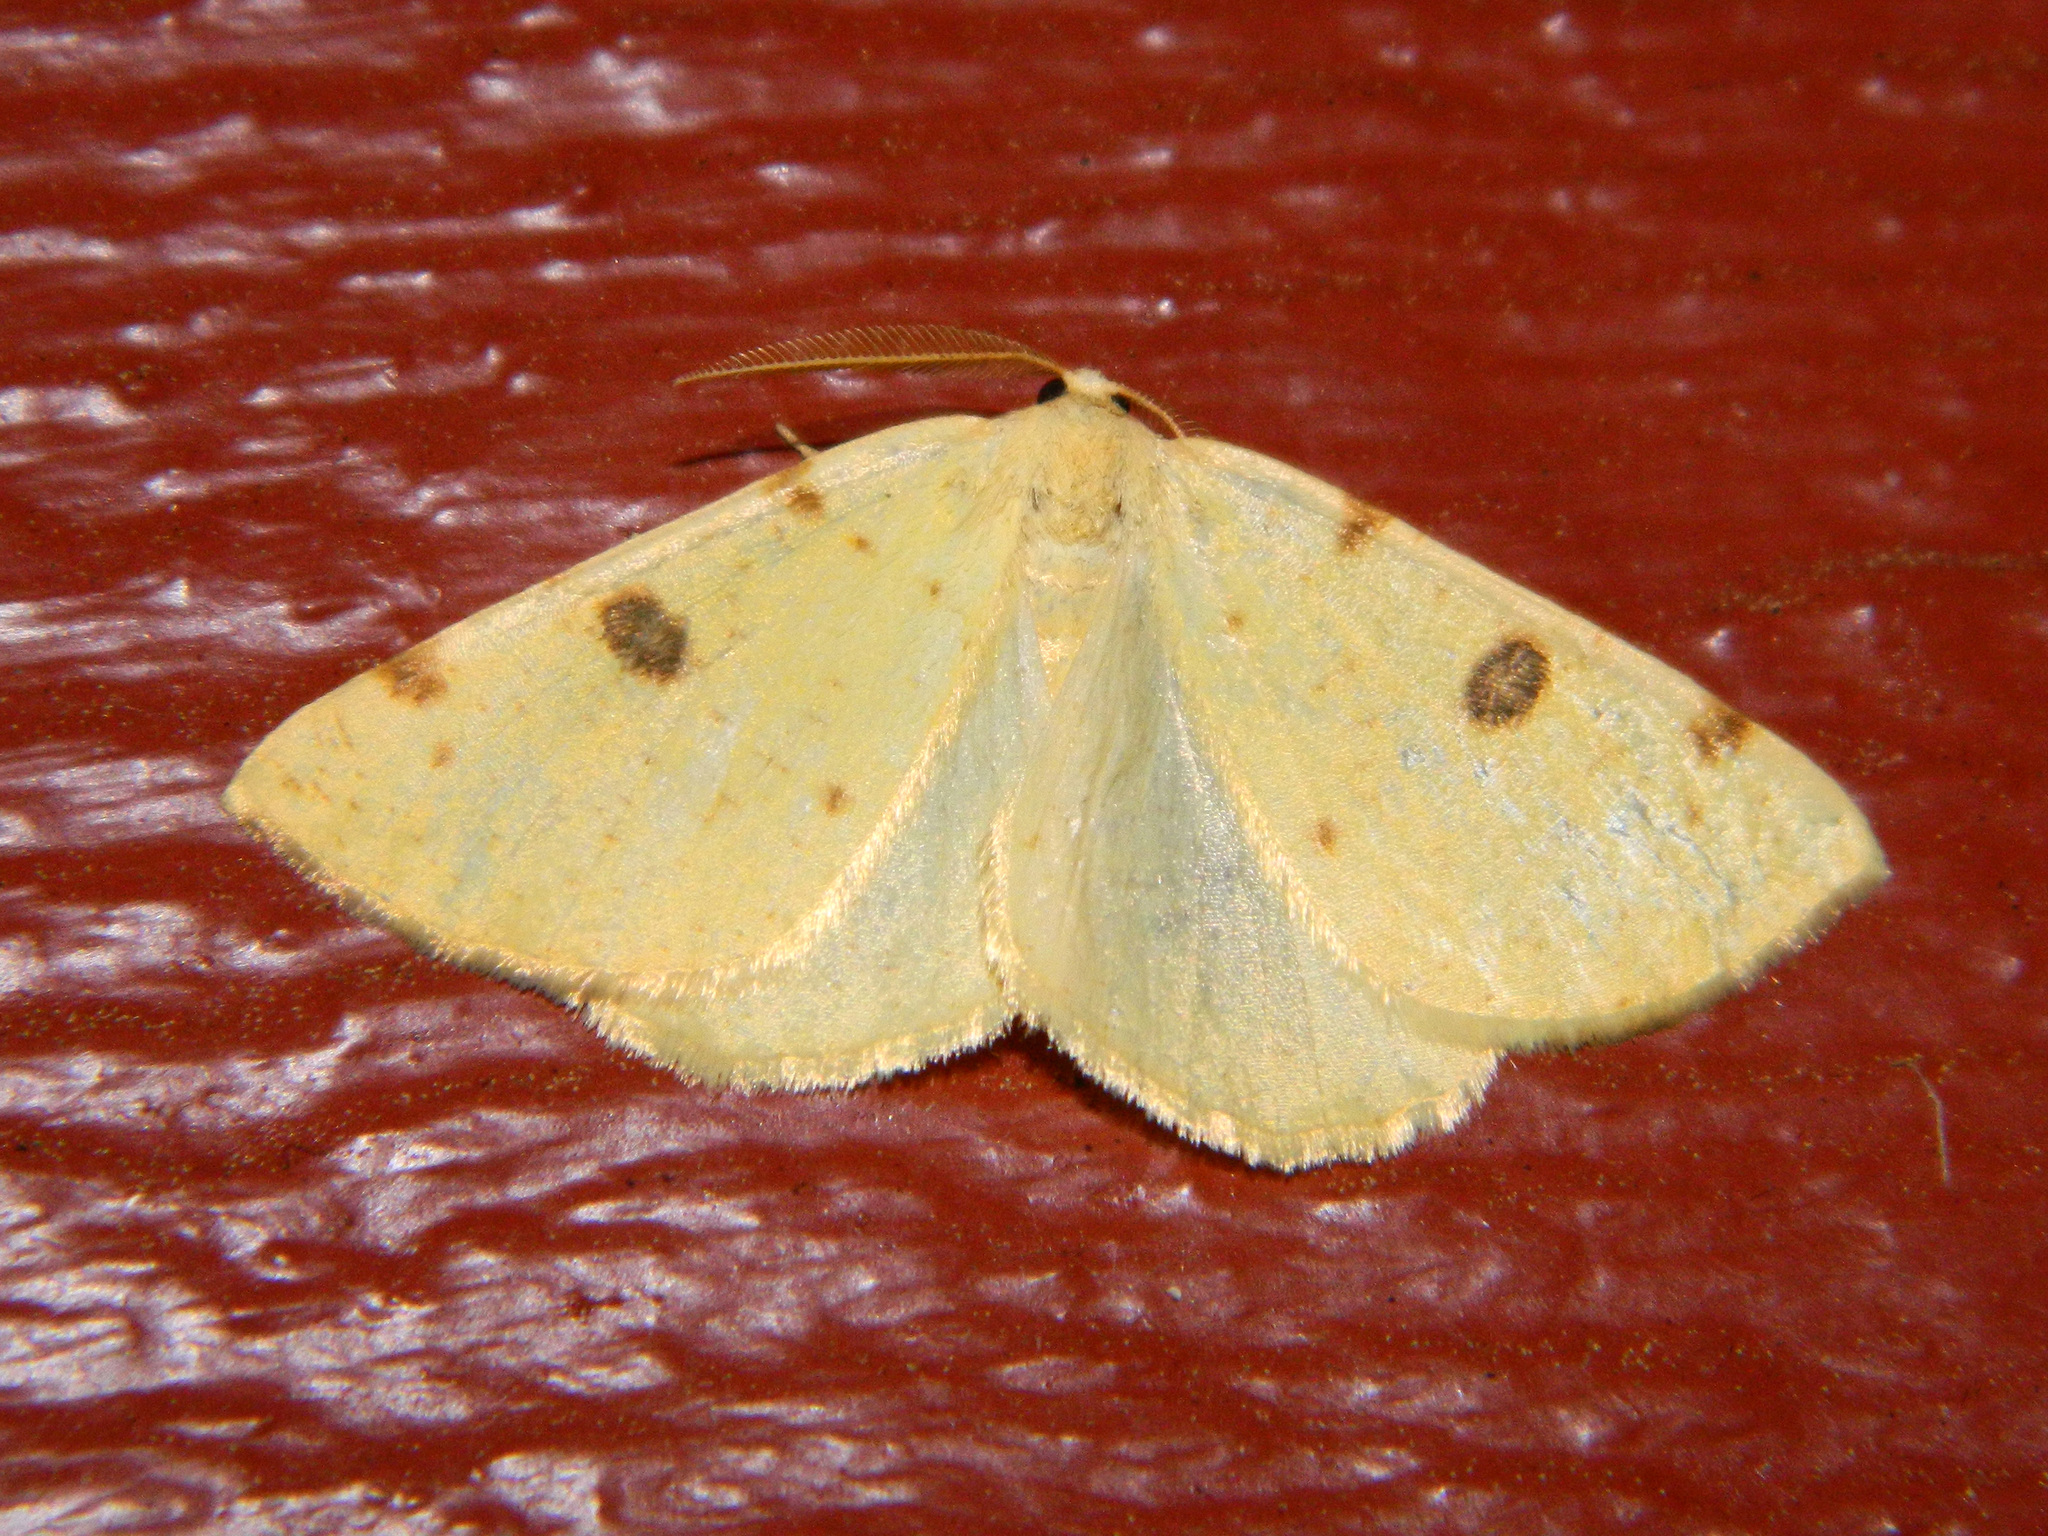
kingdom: Animalia
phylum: Arthropoda
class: Insecta
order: Lepidoptera
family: Geometridae
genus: Hesperumia
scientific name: Hesperumia sulphuraria
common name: Sulphur moth
